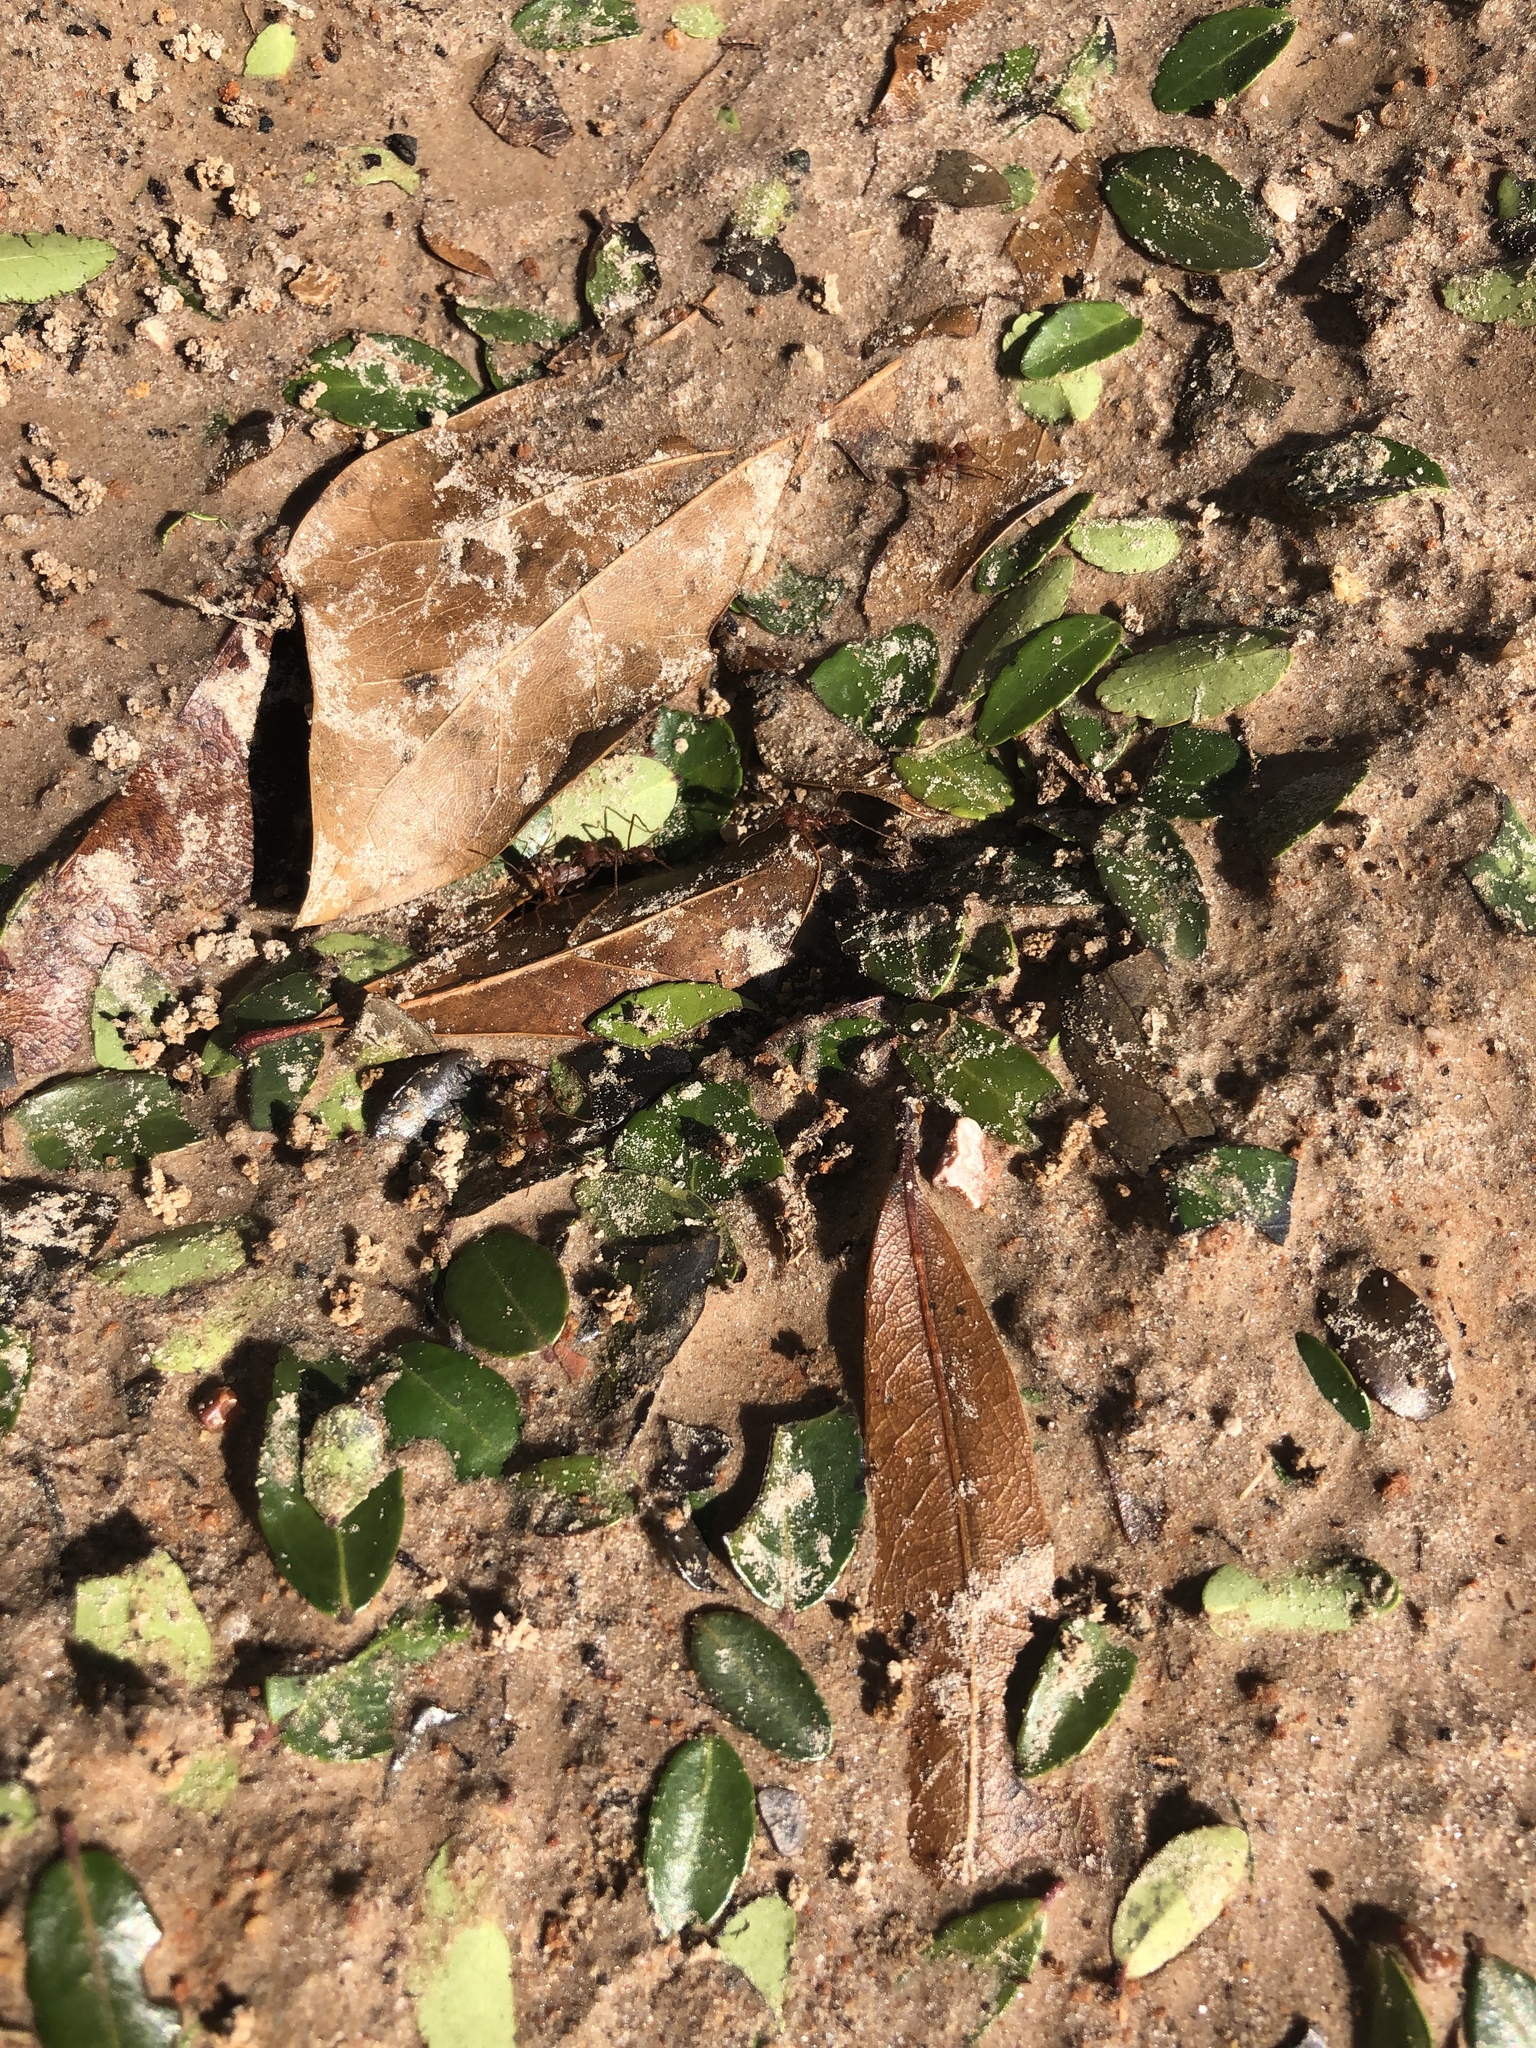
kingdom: Animalia
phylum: Arthropoda
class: Insecta
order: Hymenoptera
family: Formicidae
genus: Atta
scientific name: Atta texana
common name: Texas leafcutting ant
